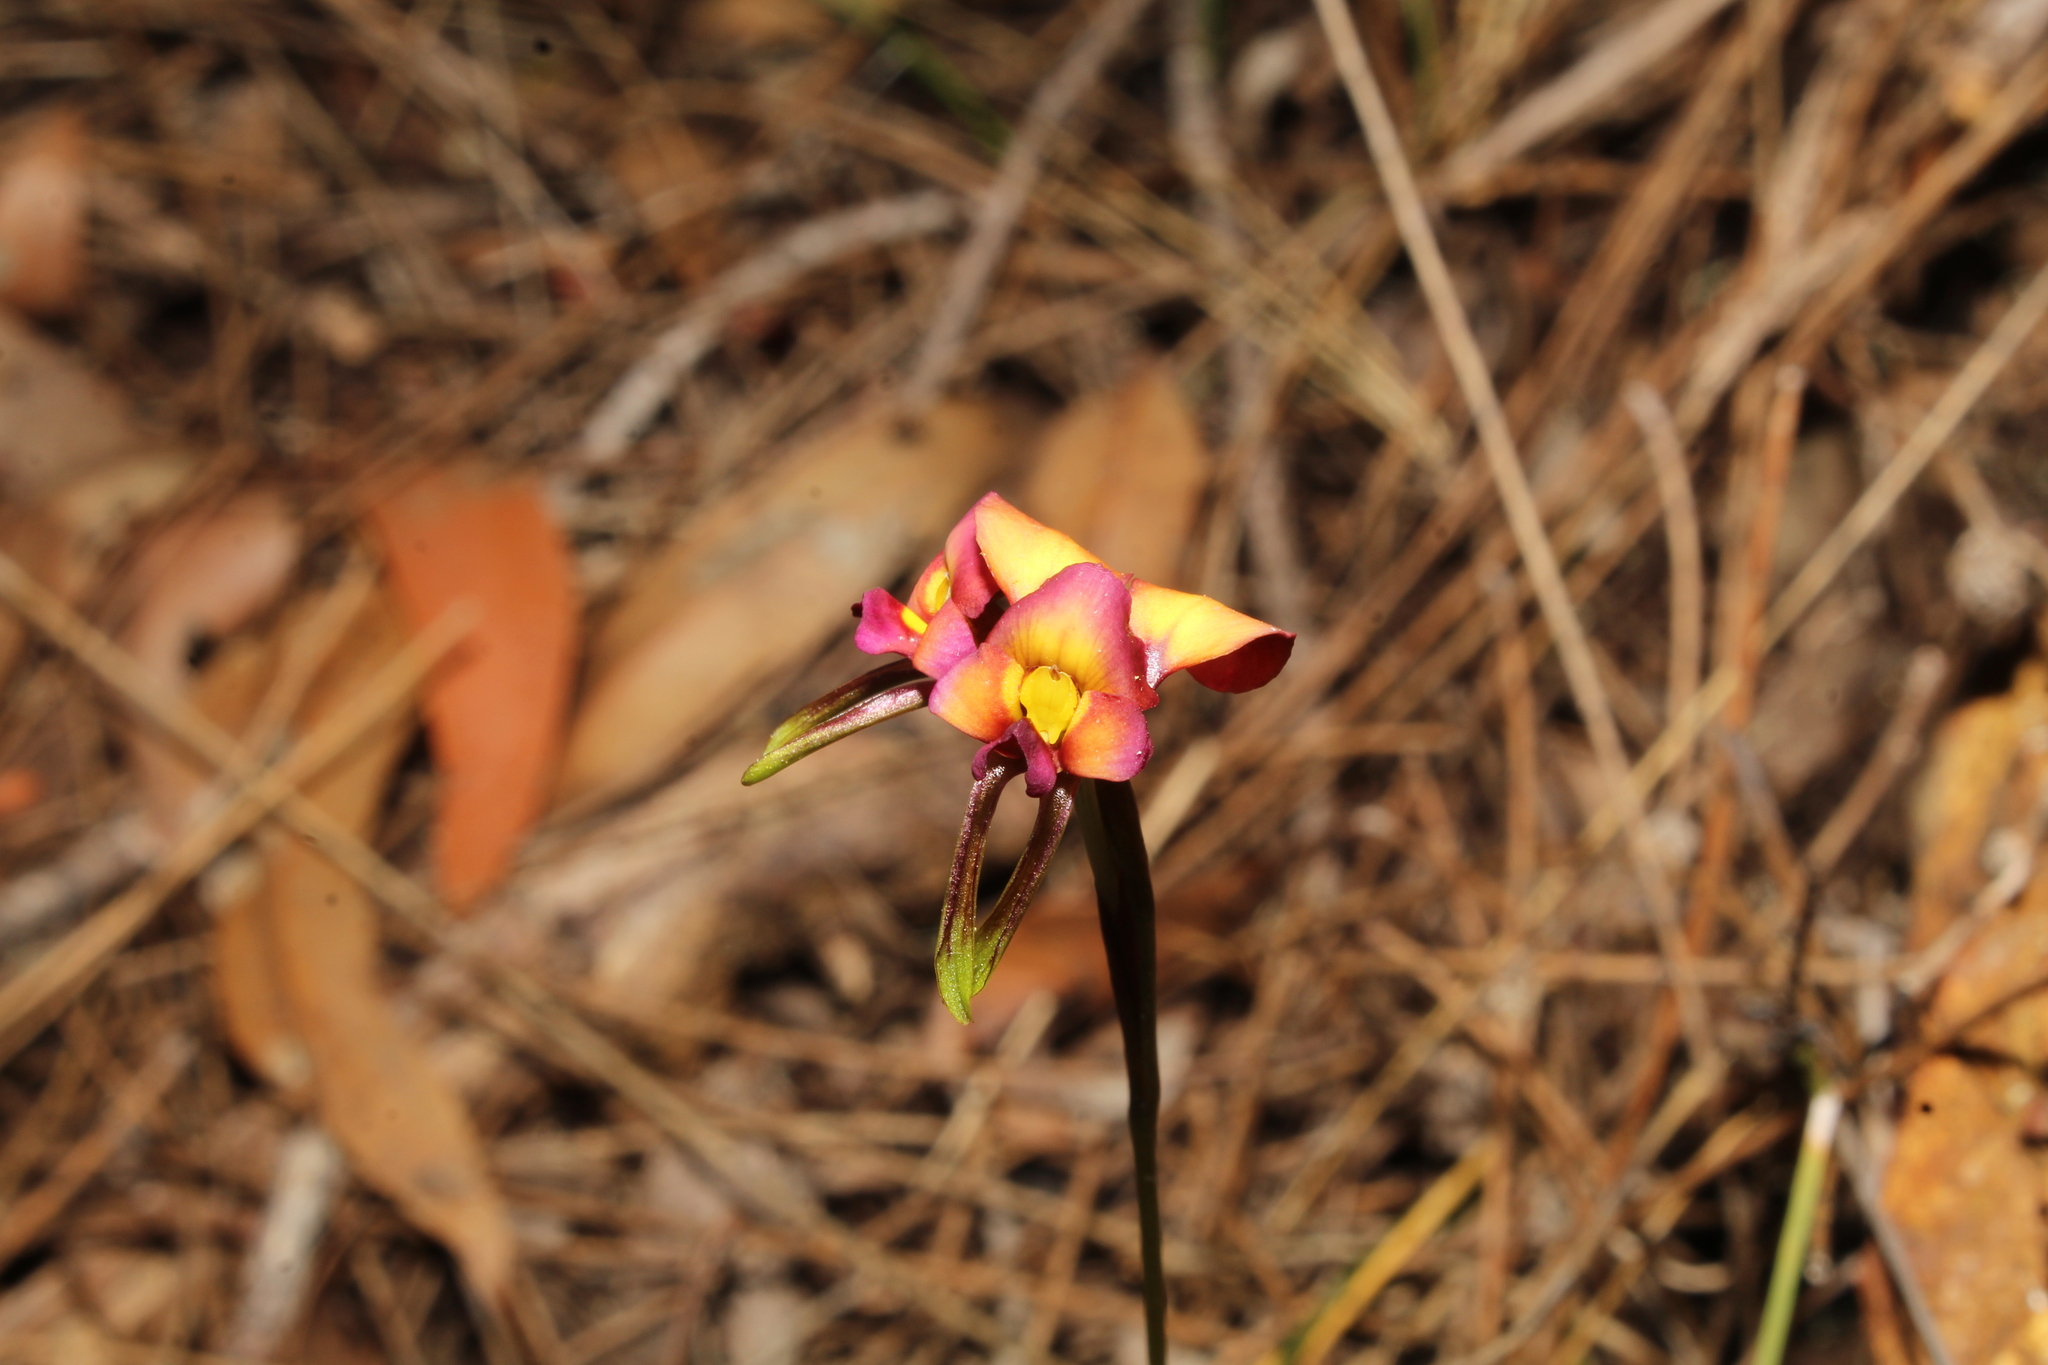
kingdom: Plantae
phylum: Tracheophyta
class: Liliopsida
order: Asparagales
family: Orchidaceae
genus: Diuris
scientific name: Diuris longifolia
